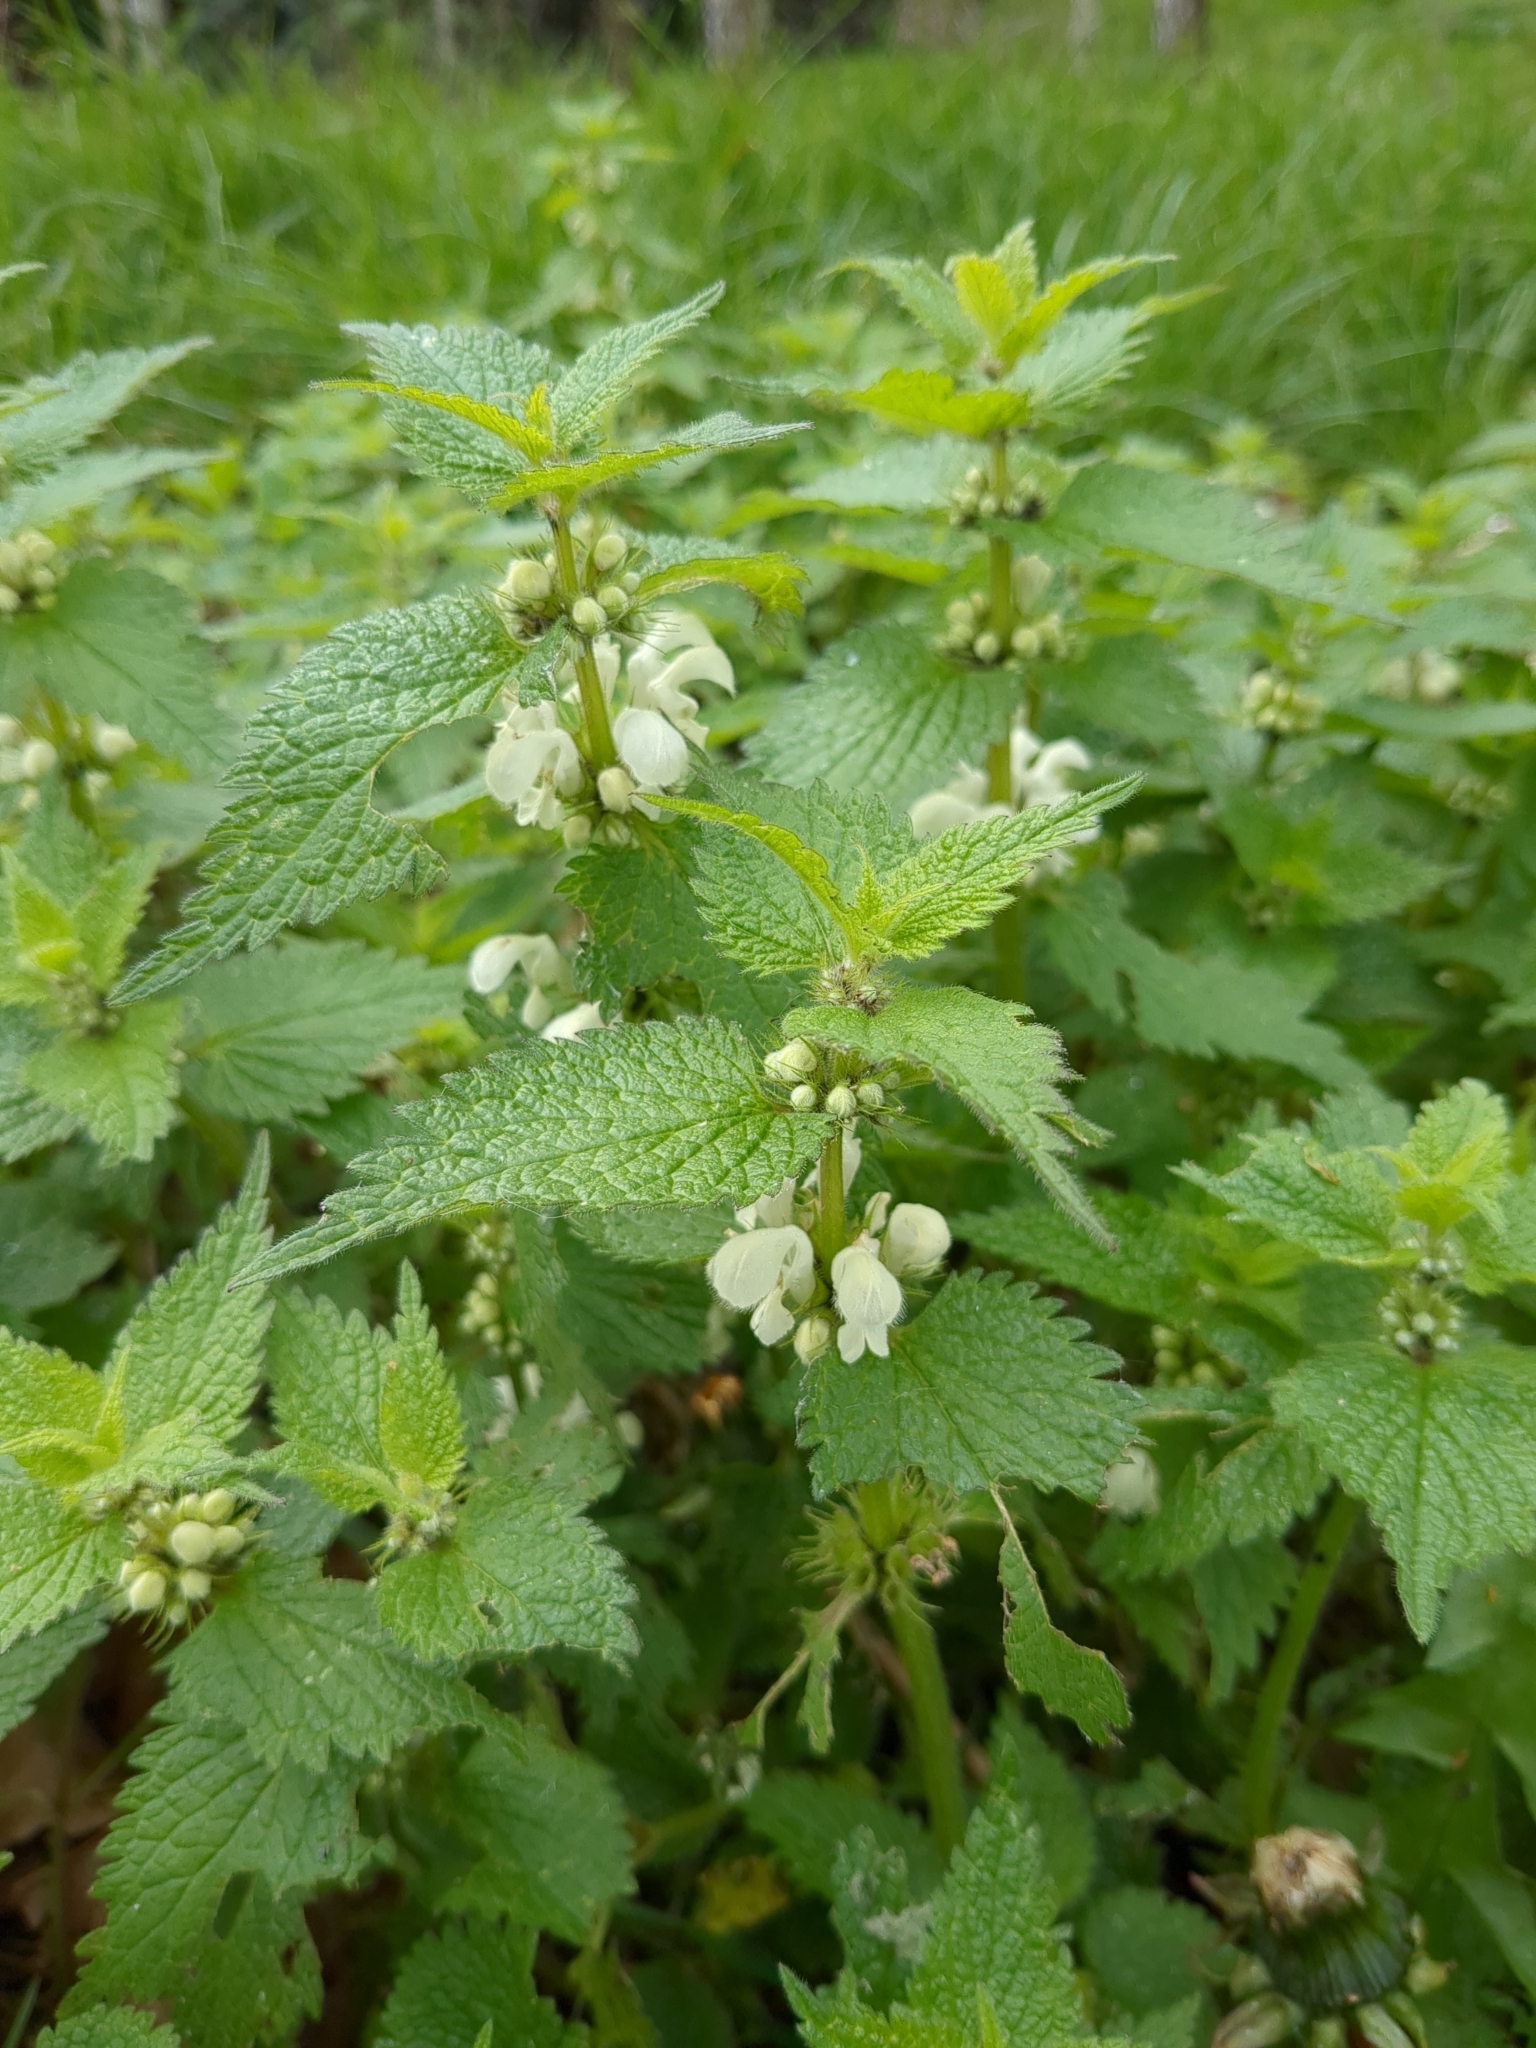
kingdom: Plantae
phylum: Tracheophyta
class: Magnoliopsida
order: Lamiales
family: Lamiaceae
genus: Lamium
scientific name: Lamium album
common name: White dead-nettle
